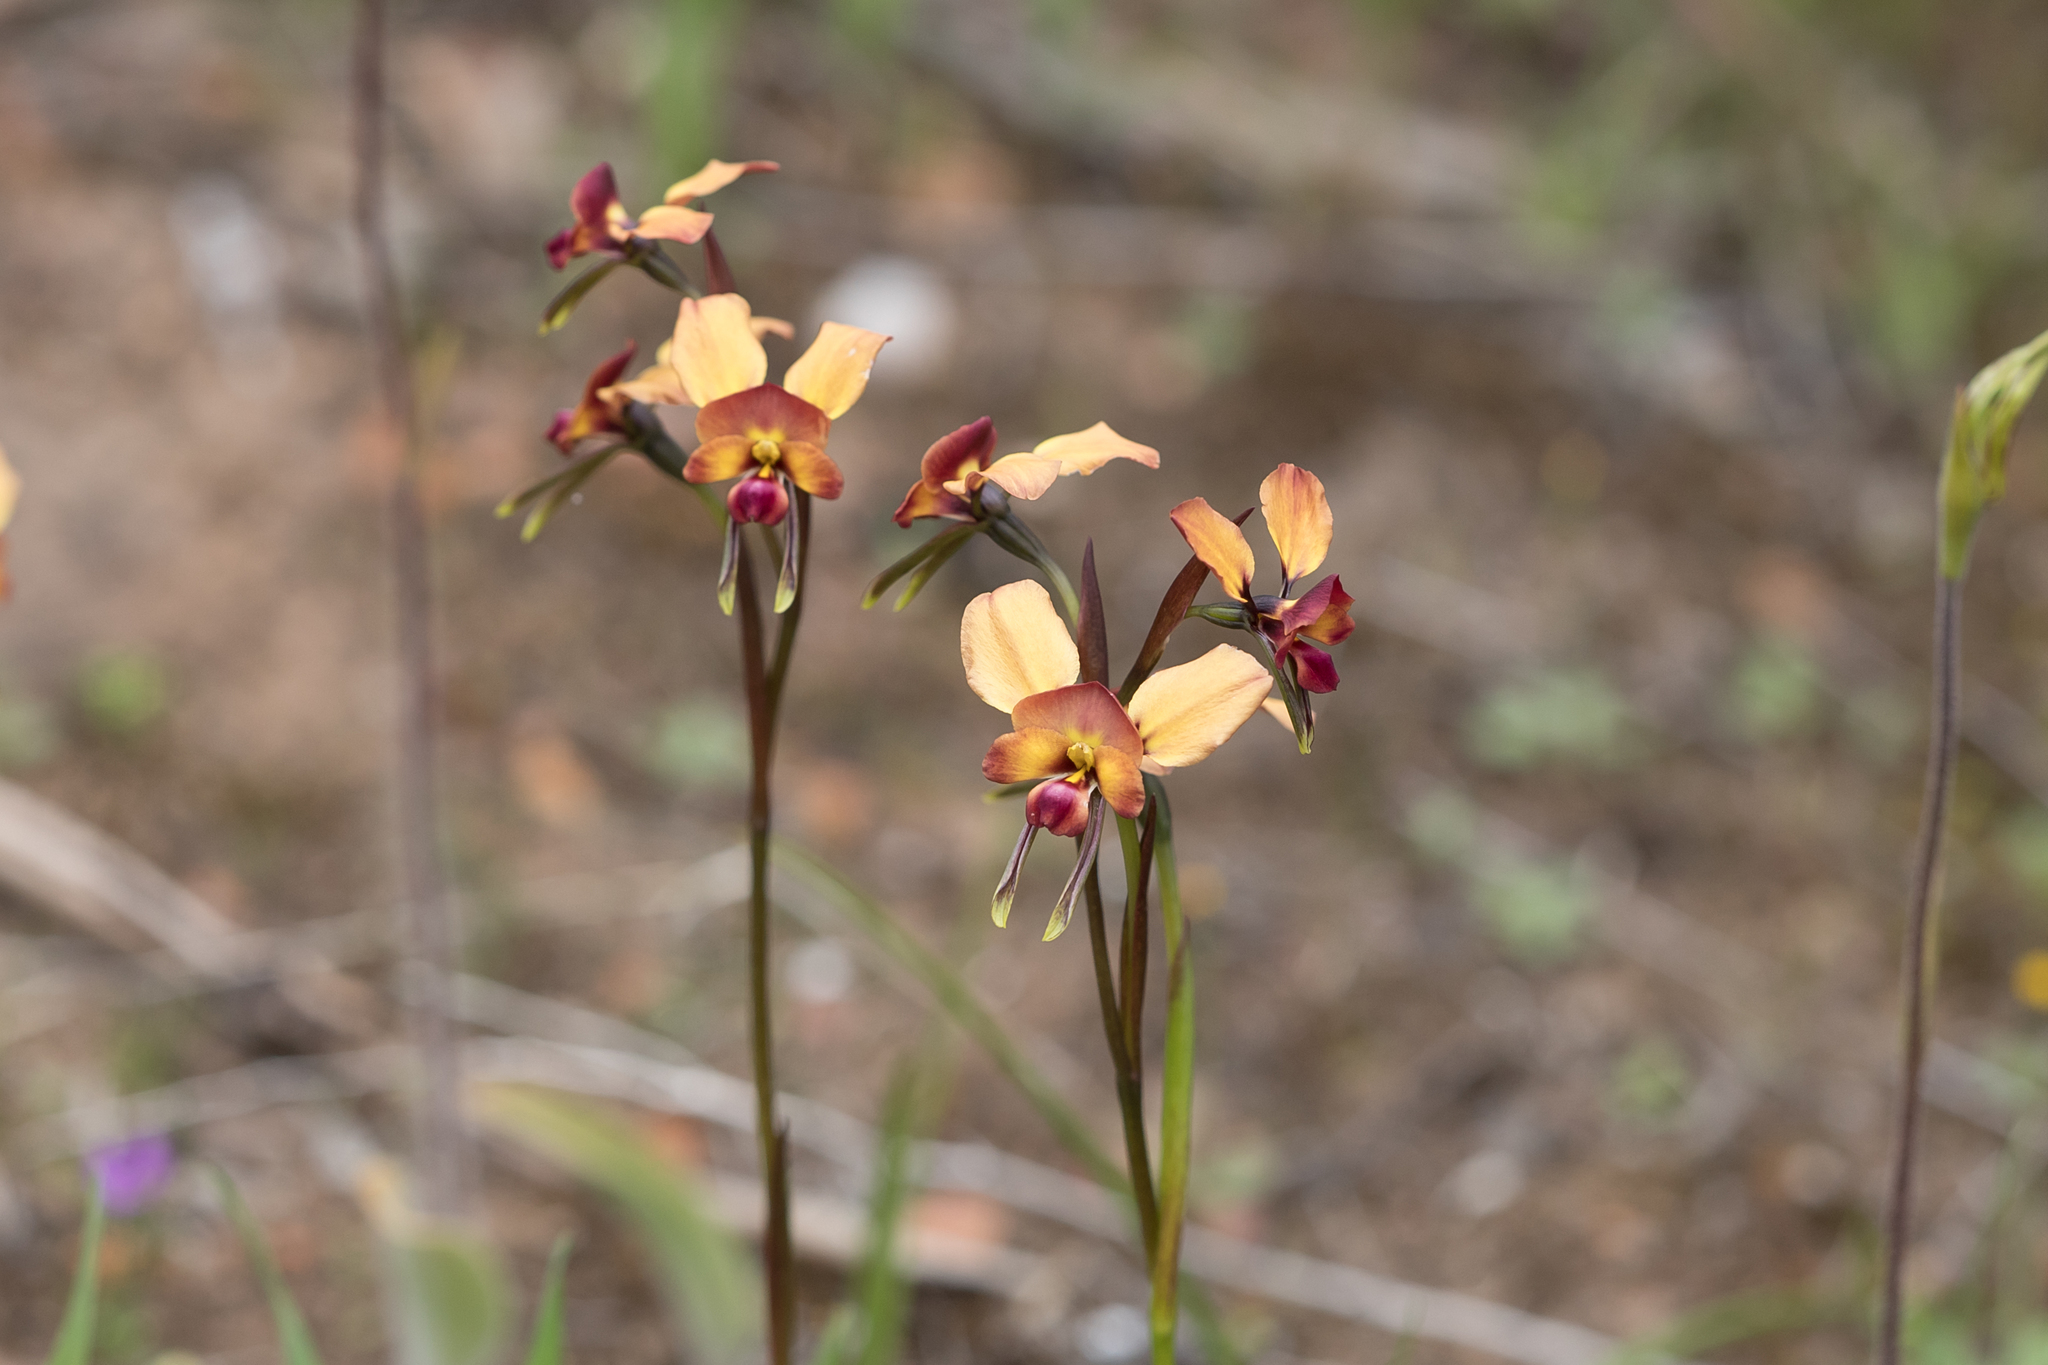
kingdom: Plantae
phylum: Tracheophyta
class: Liliopsida
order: Asparagales
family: Orchidaceae
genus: Diuris
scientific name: Diuris orientis
